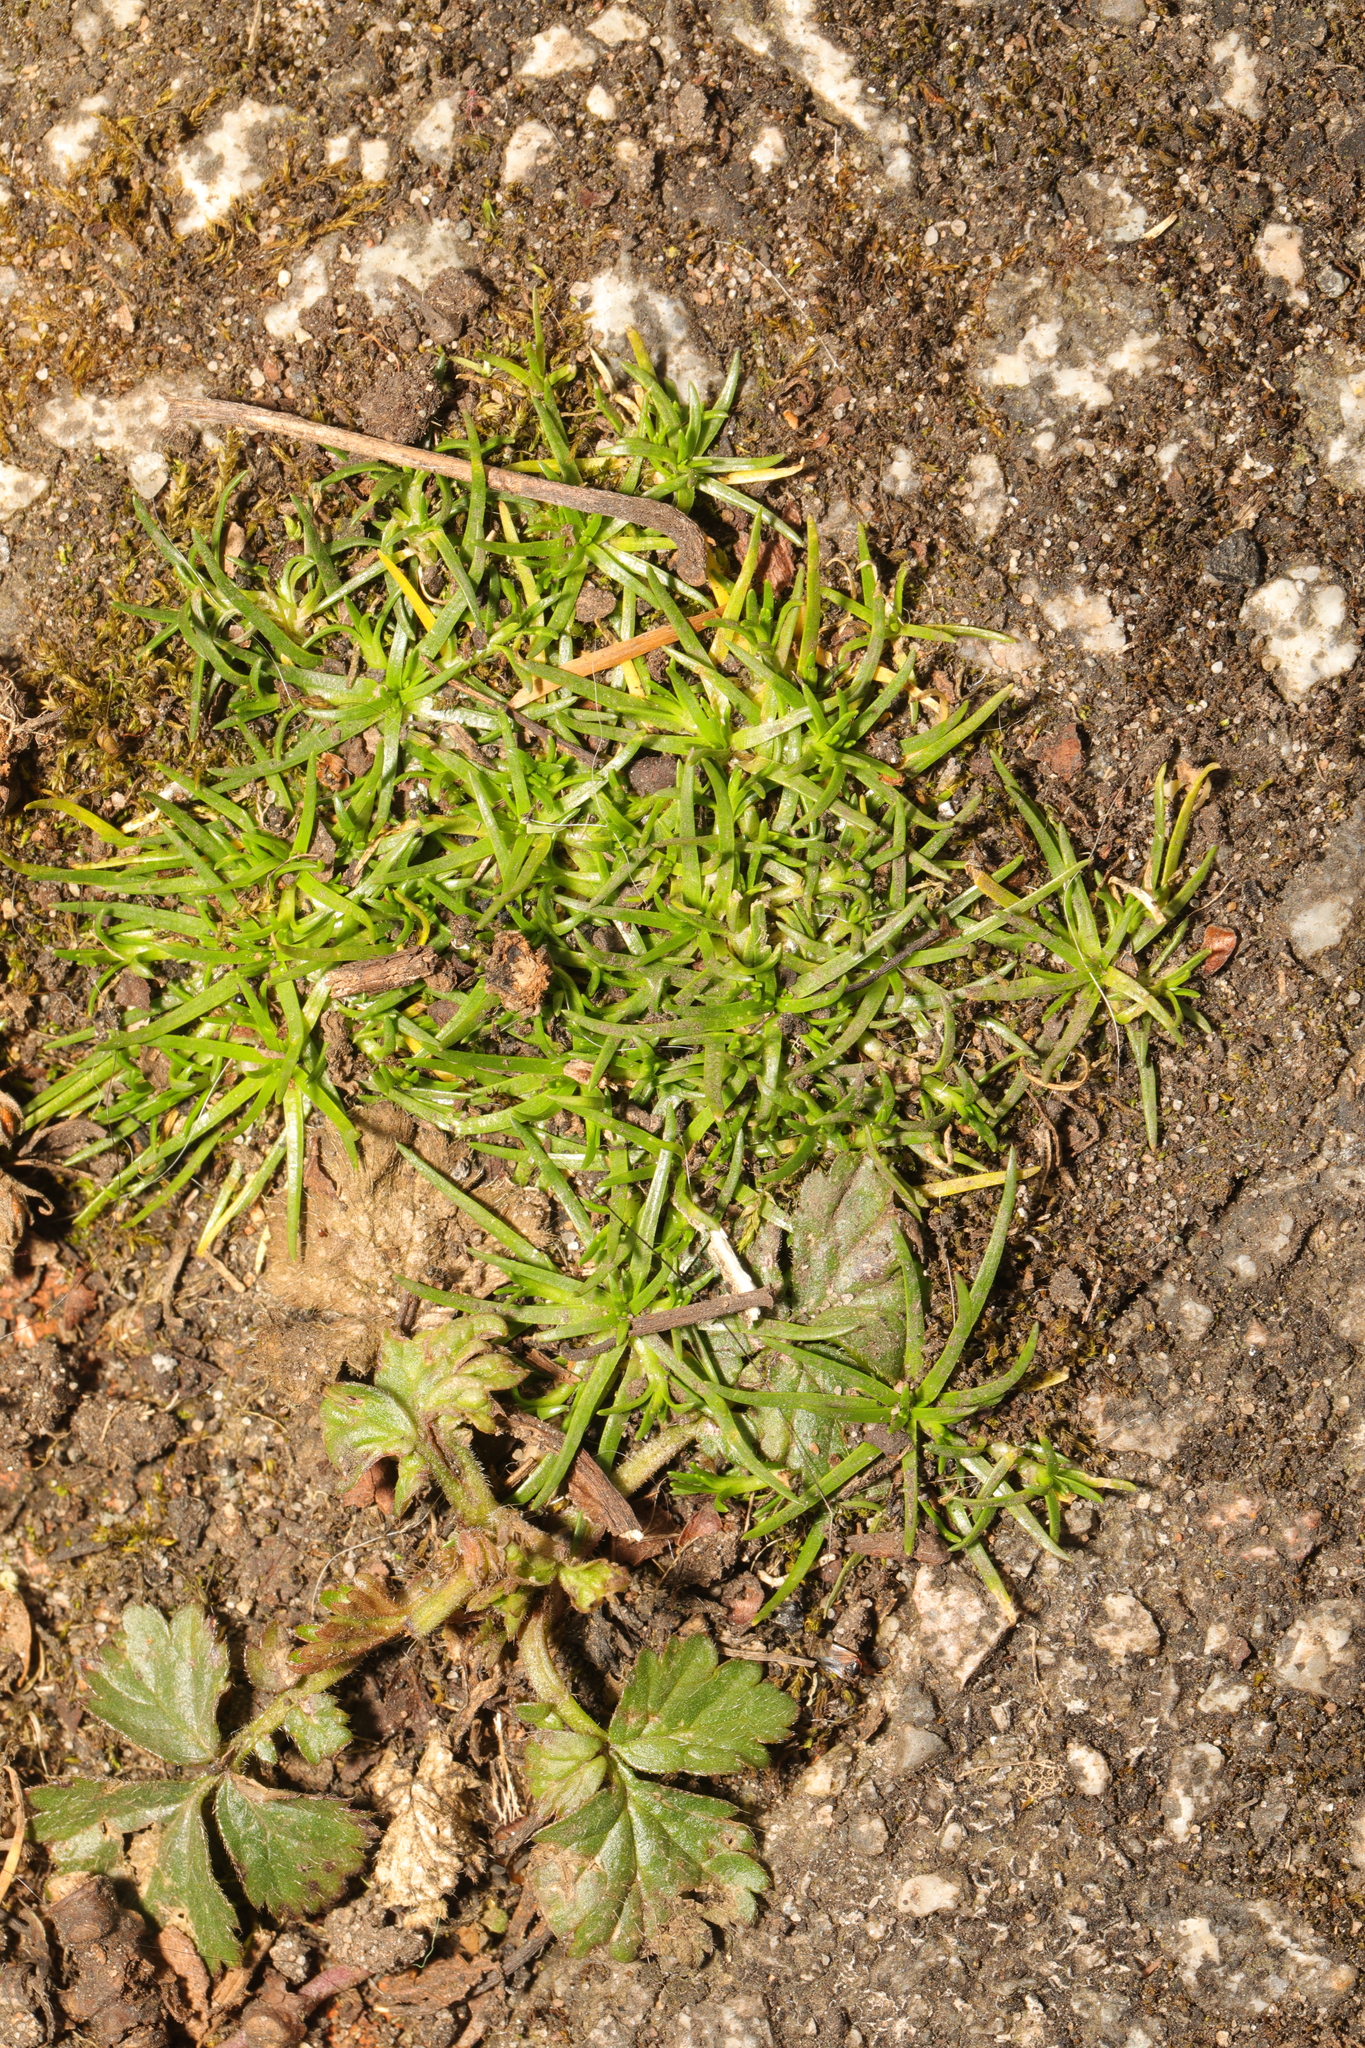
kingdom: Plantae
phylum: Tracheophyta
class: Magnoliopsida
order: Caryophyllales
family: Caryophyllaceae
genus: Sagina
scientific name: Sagina procumbens
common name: Procumbent pearlwort
